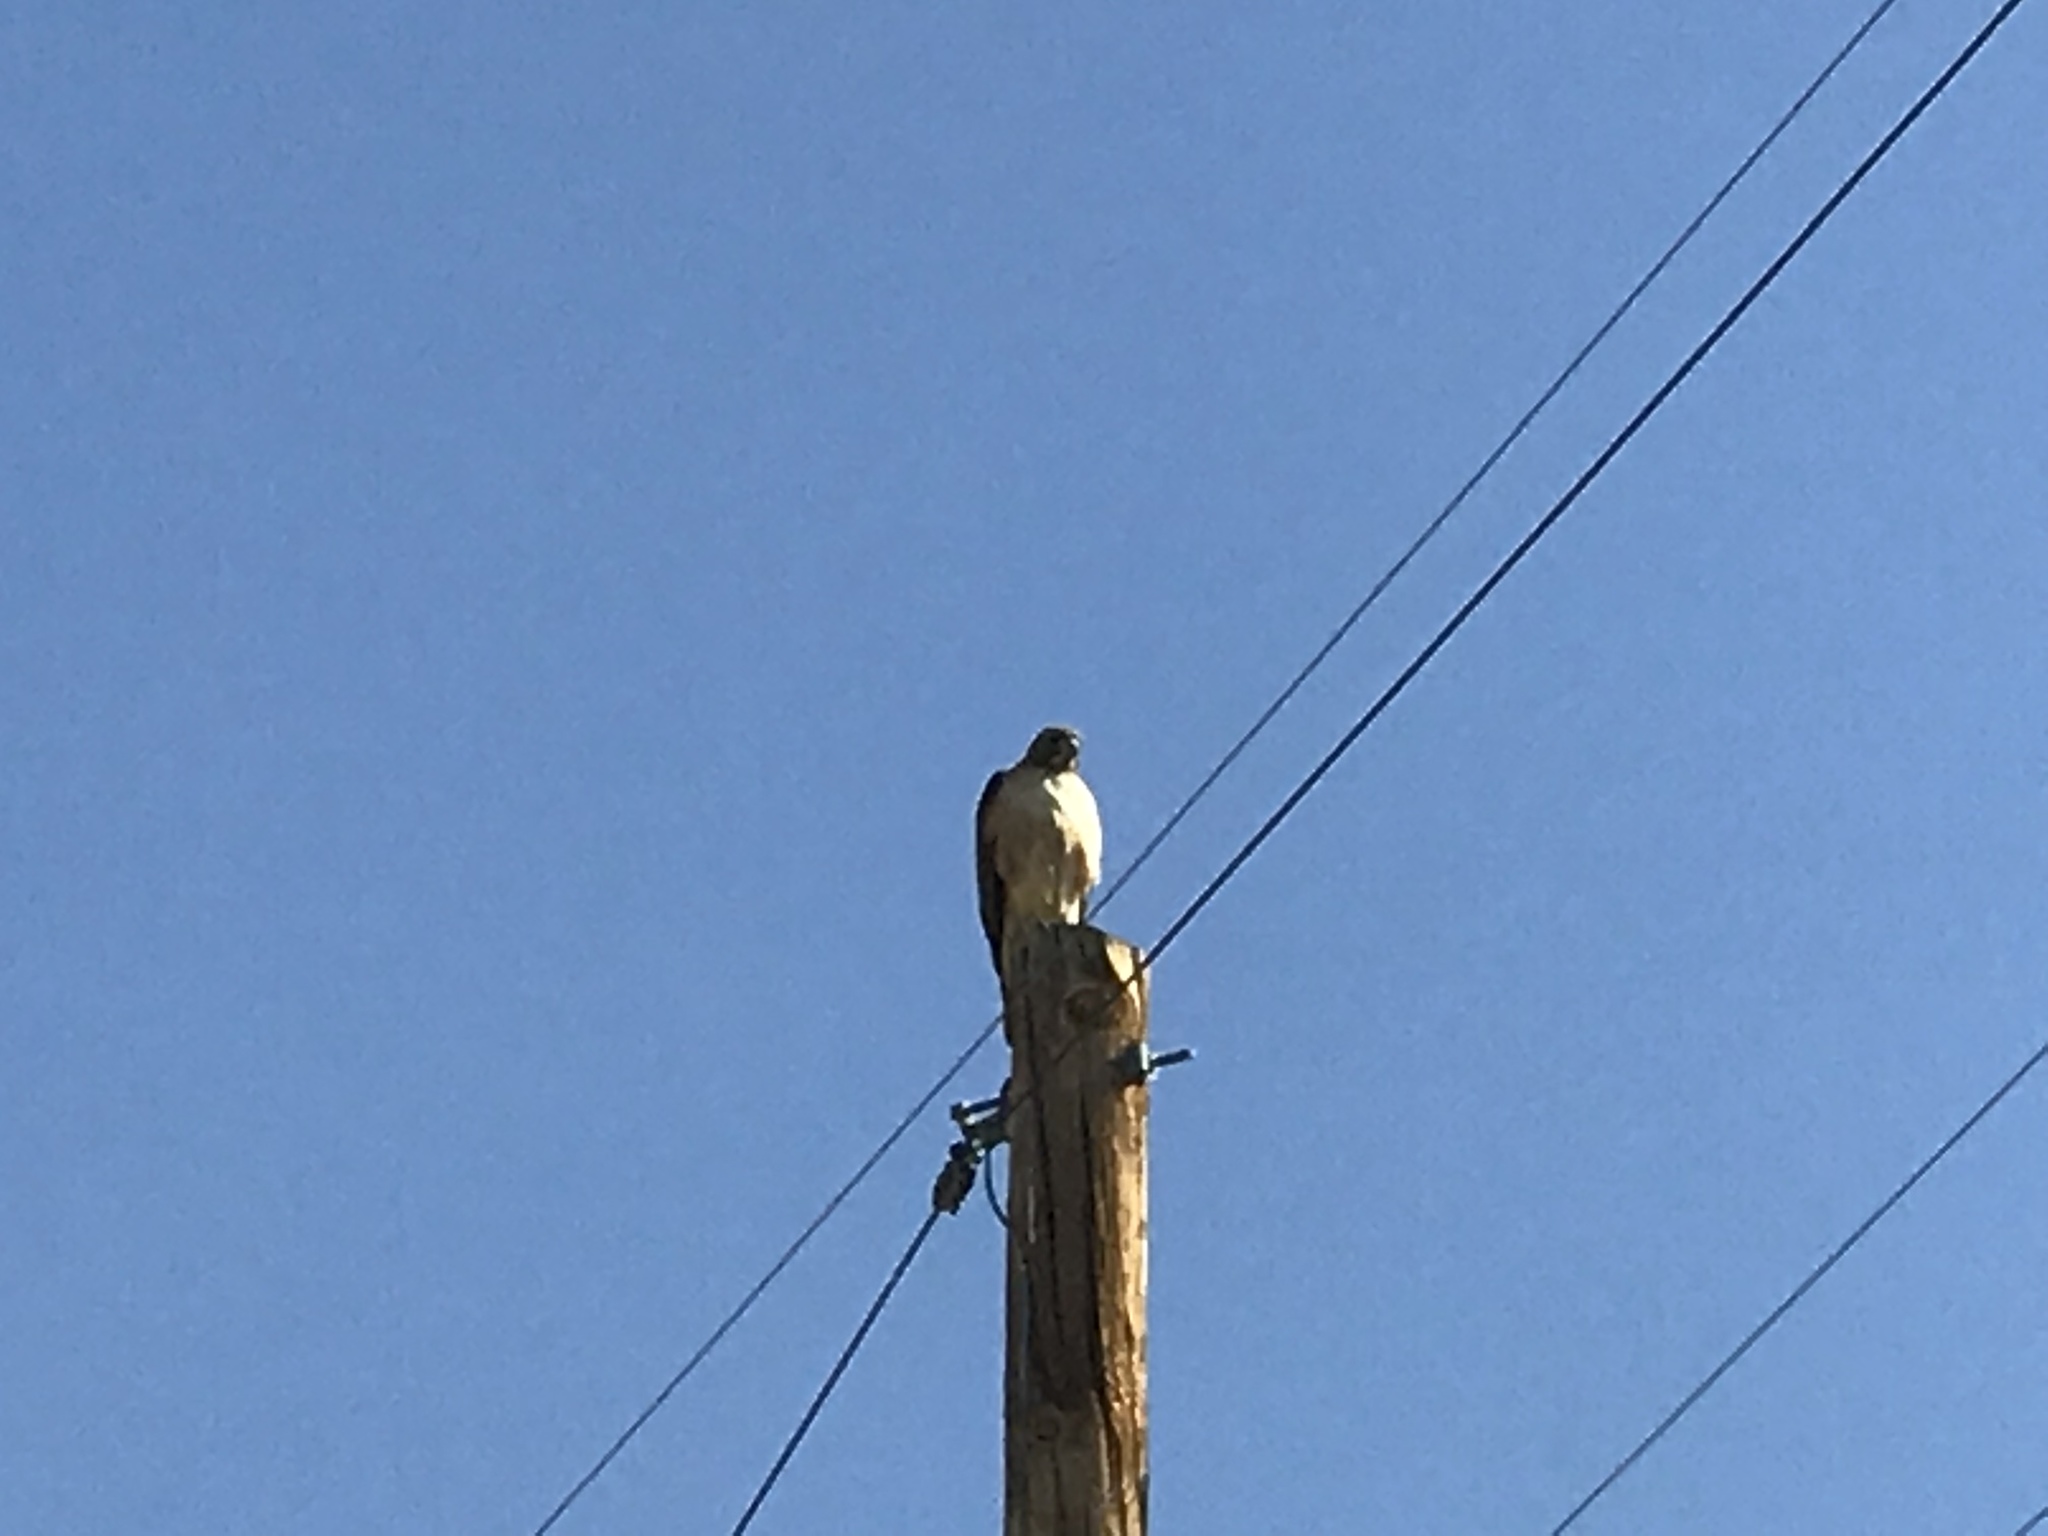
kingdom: Animalia
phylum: Chordata
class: Aves
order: Accipitriformes
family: Accipitridae
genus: Buteo
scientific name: Buteo jamaicensis
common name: Red-tailed hawk
